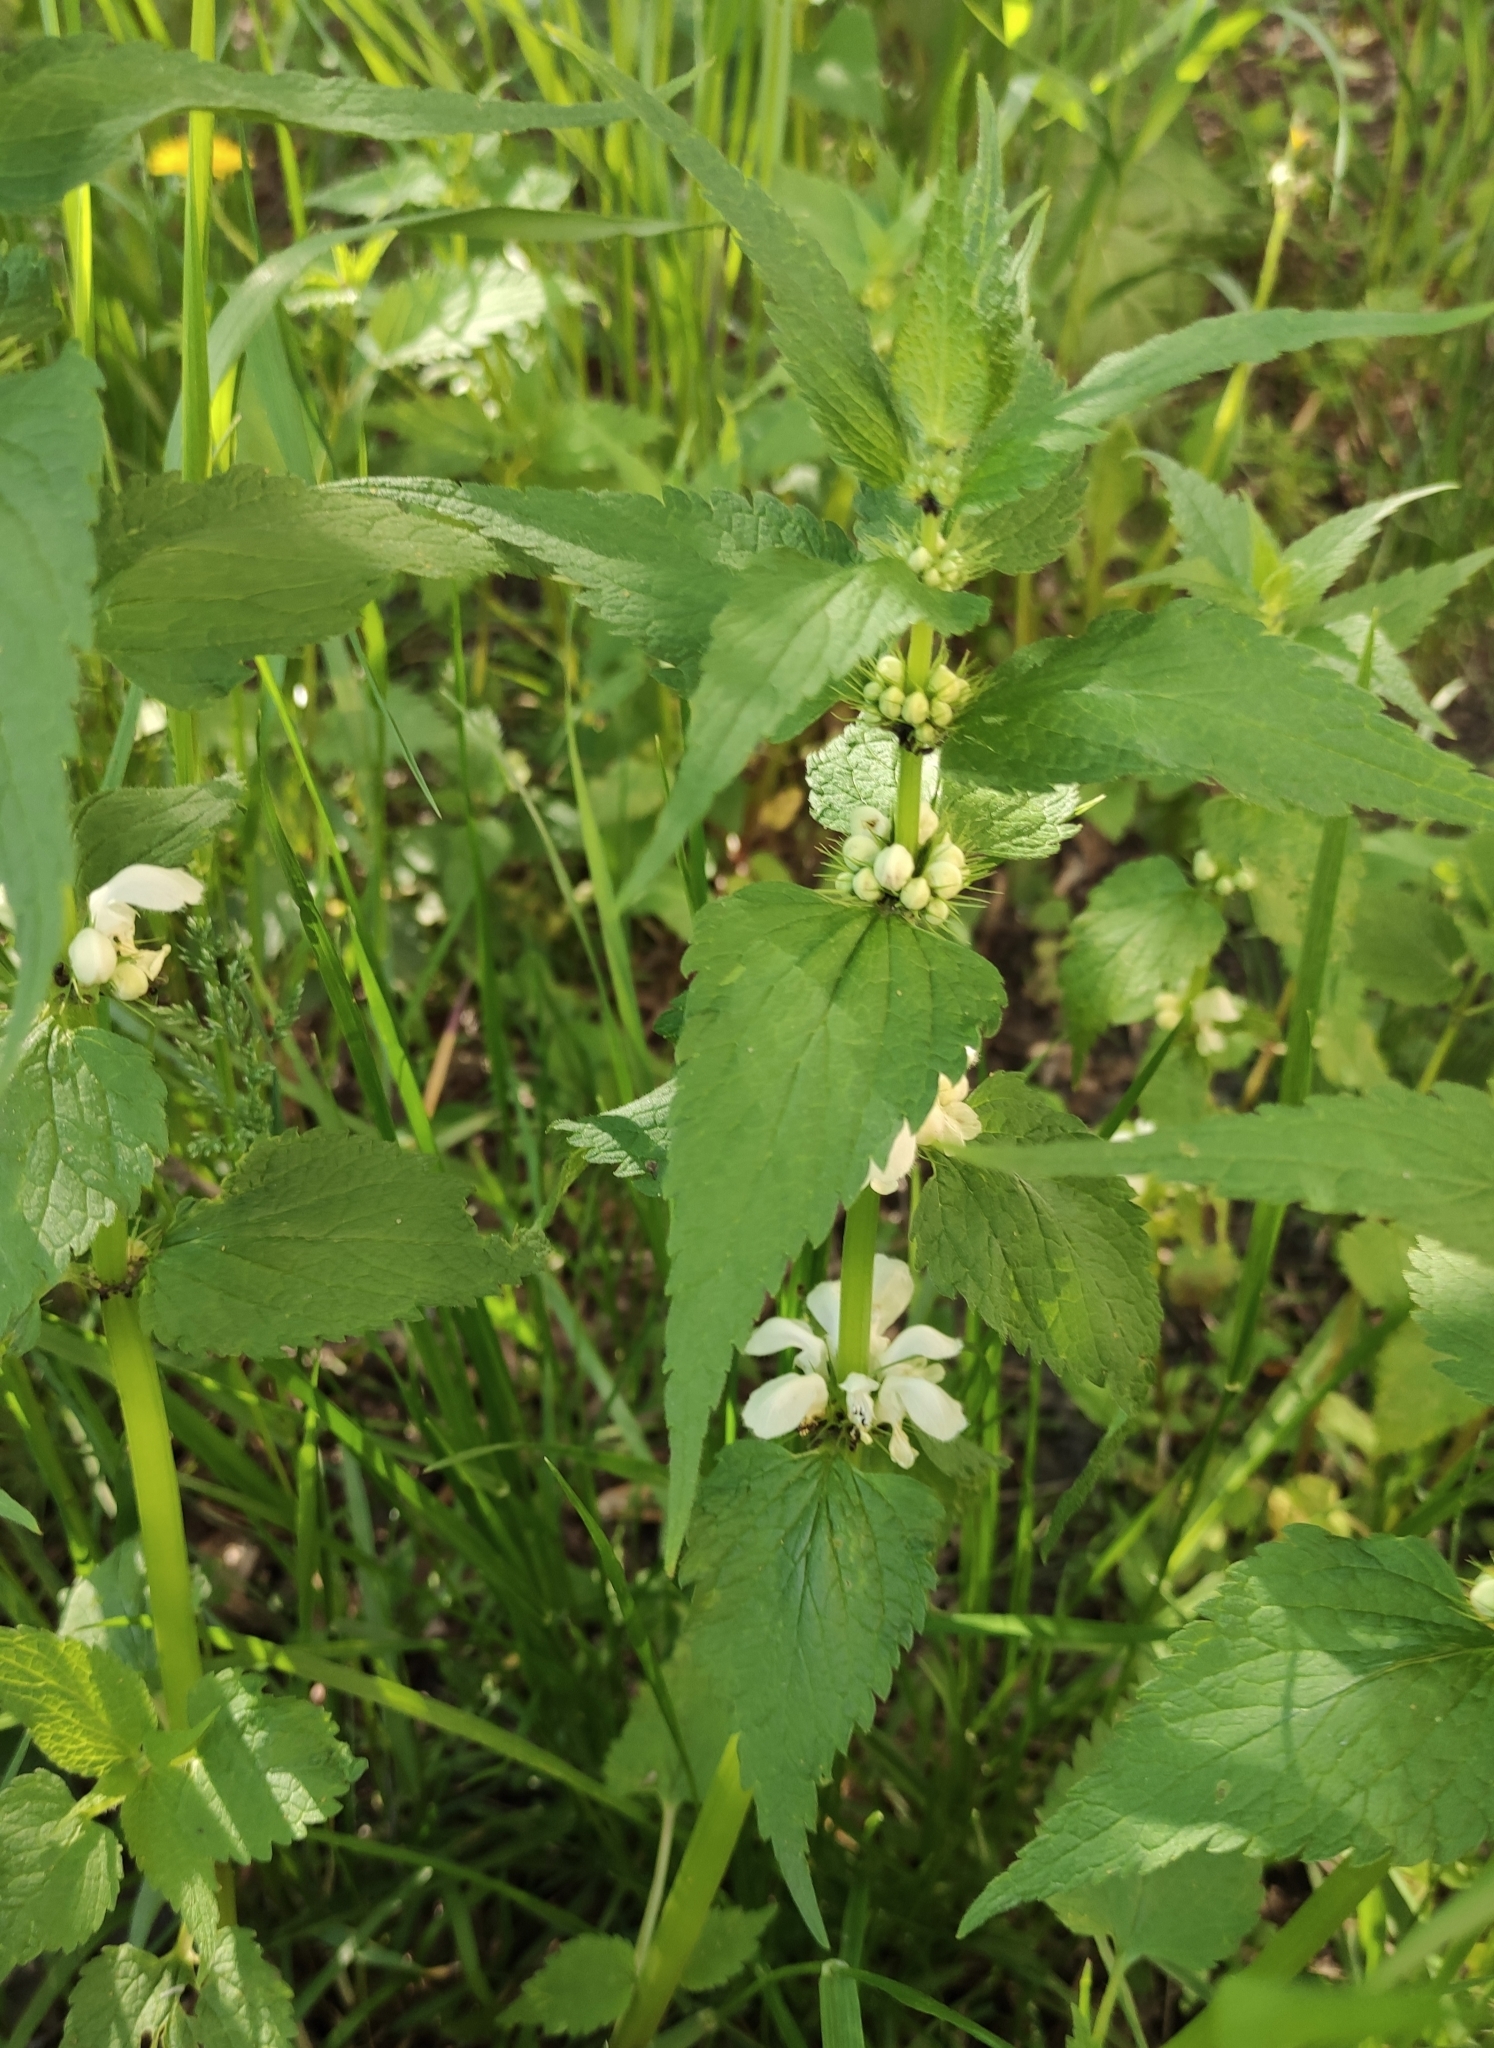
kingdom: Plantae
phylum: Tracheophyta
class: Magnoliopsida
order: Lamiales
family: Lamiaceae
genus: Lamium
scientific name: Lamium album
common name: White dead-nettle
